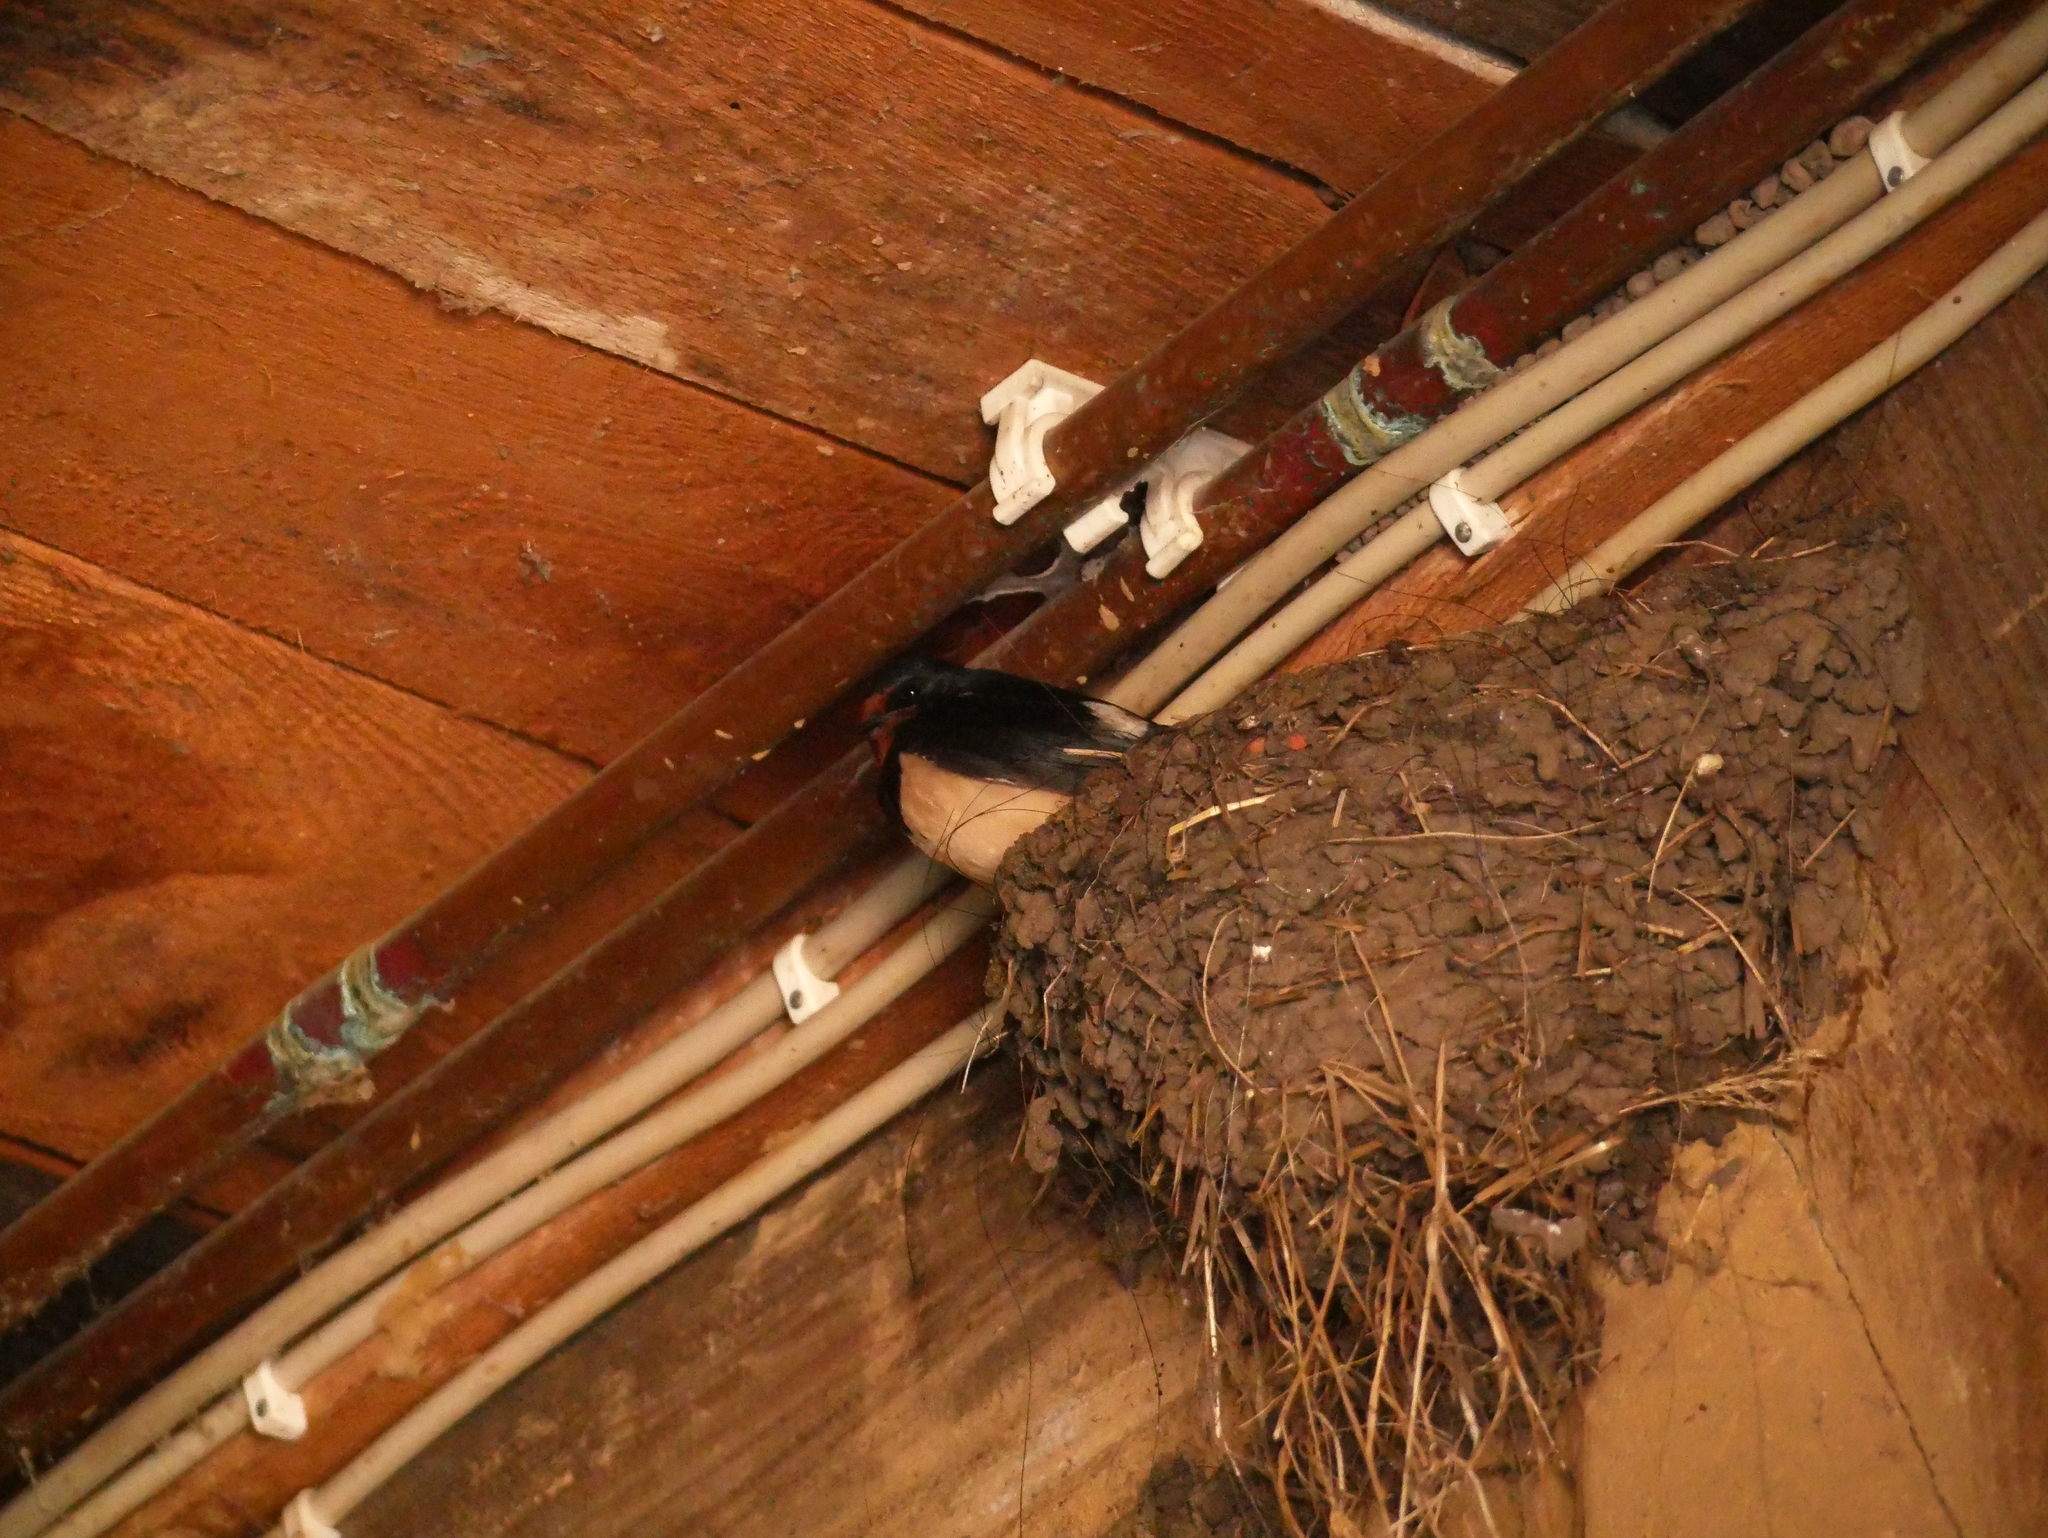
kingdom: Animalia
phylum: Chordata
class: Aves
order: Passeriformes
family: Hirundinidae
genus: Hirundo
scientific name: Hirundo rustica
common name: Barn swallow
